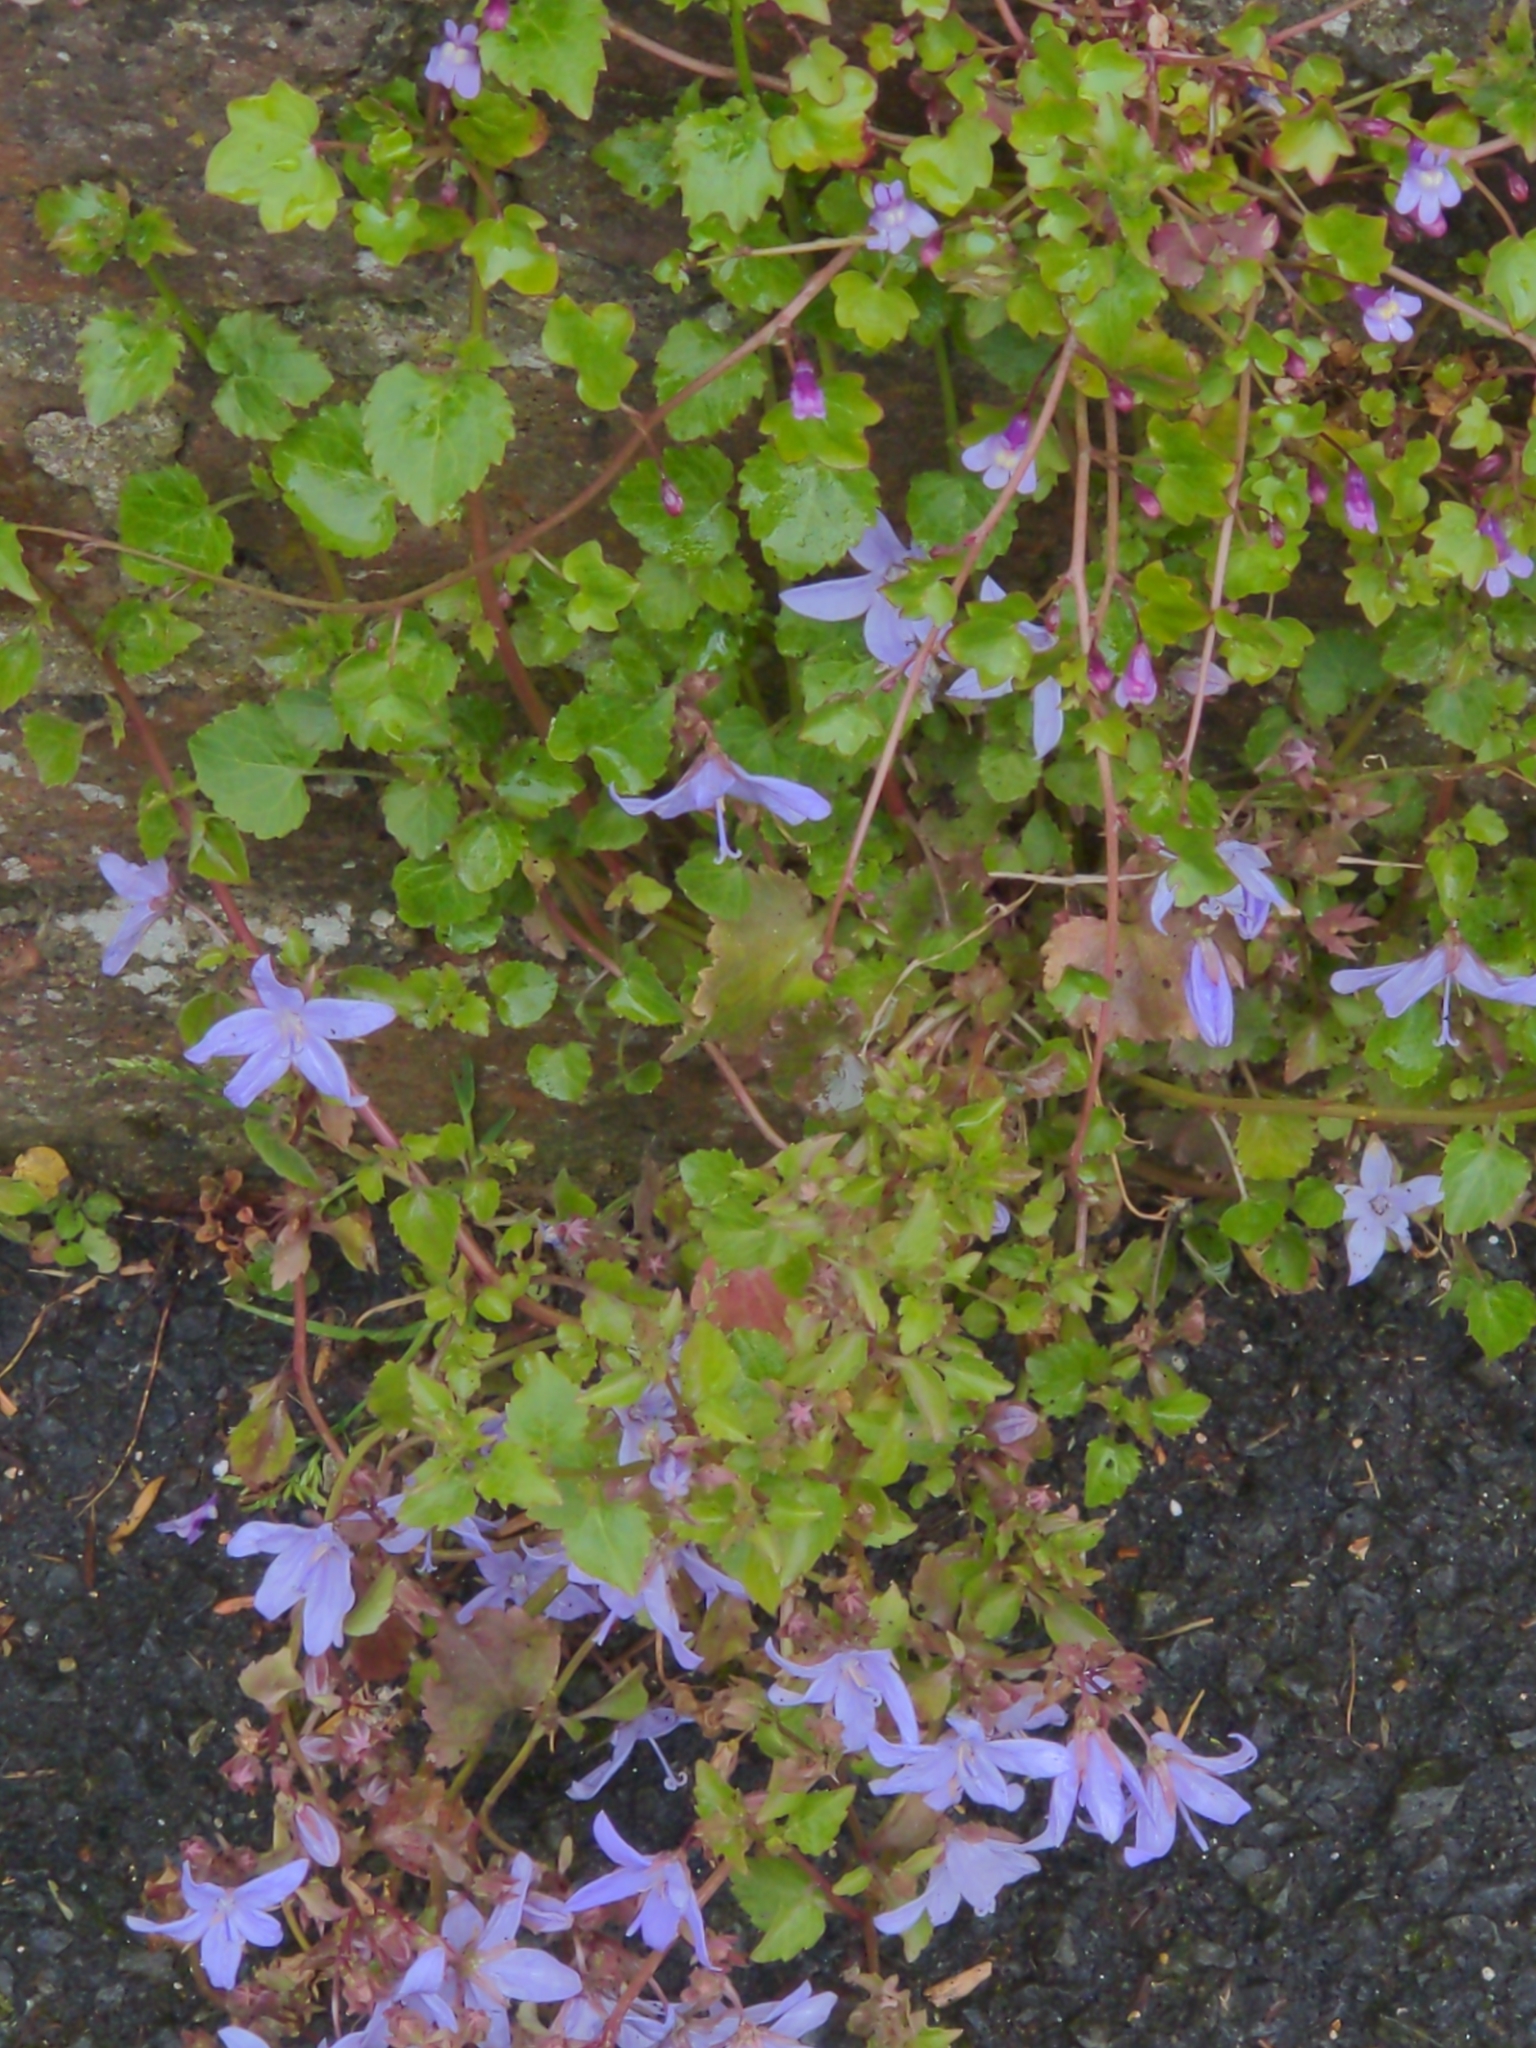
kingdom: Plantae
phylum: Tracheophyta
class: Magnoliopsida
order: Asterales
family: Campanulaceae
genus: Campanula
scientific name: Campanula poscharskyana
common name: Trailing bellflower
